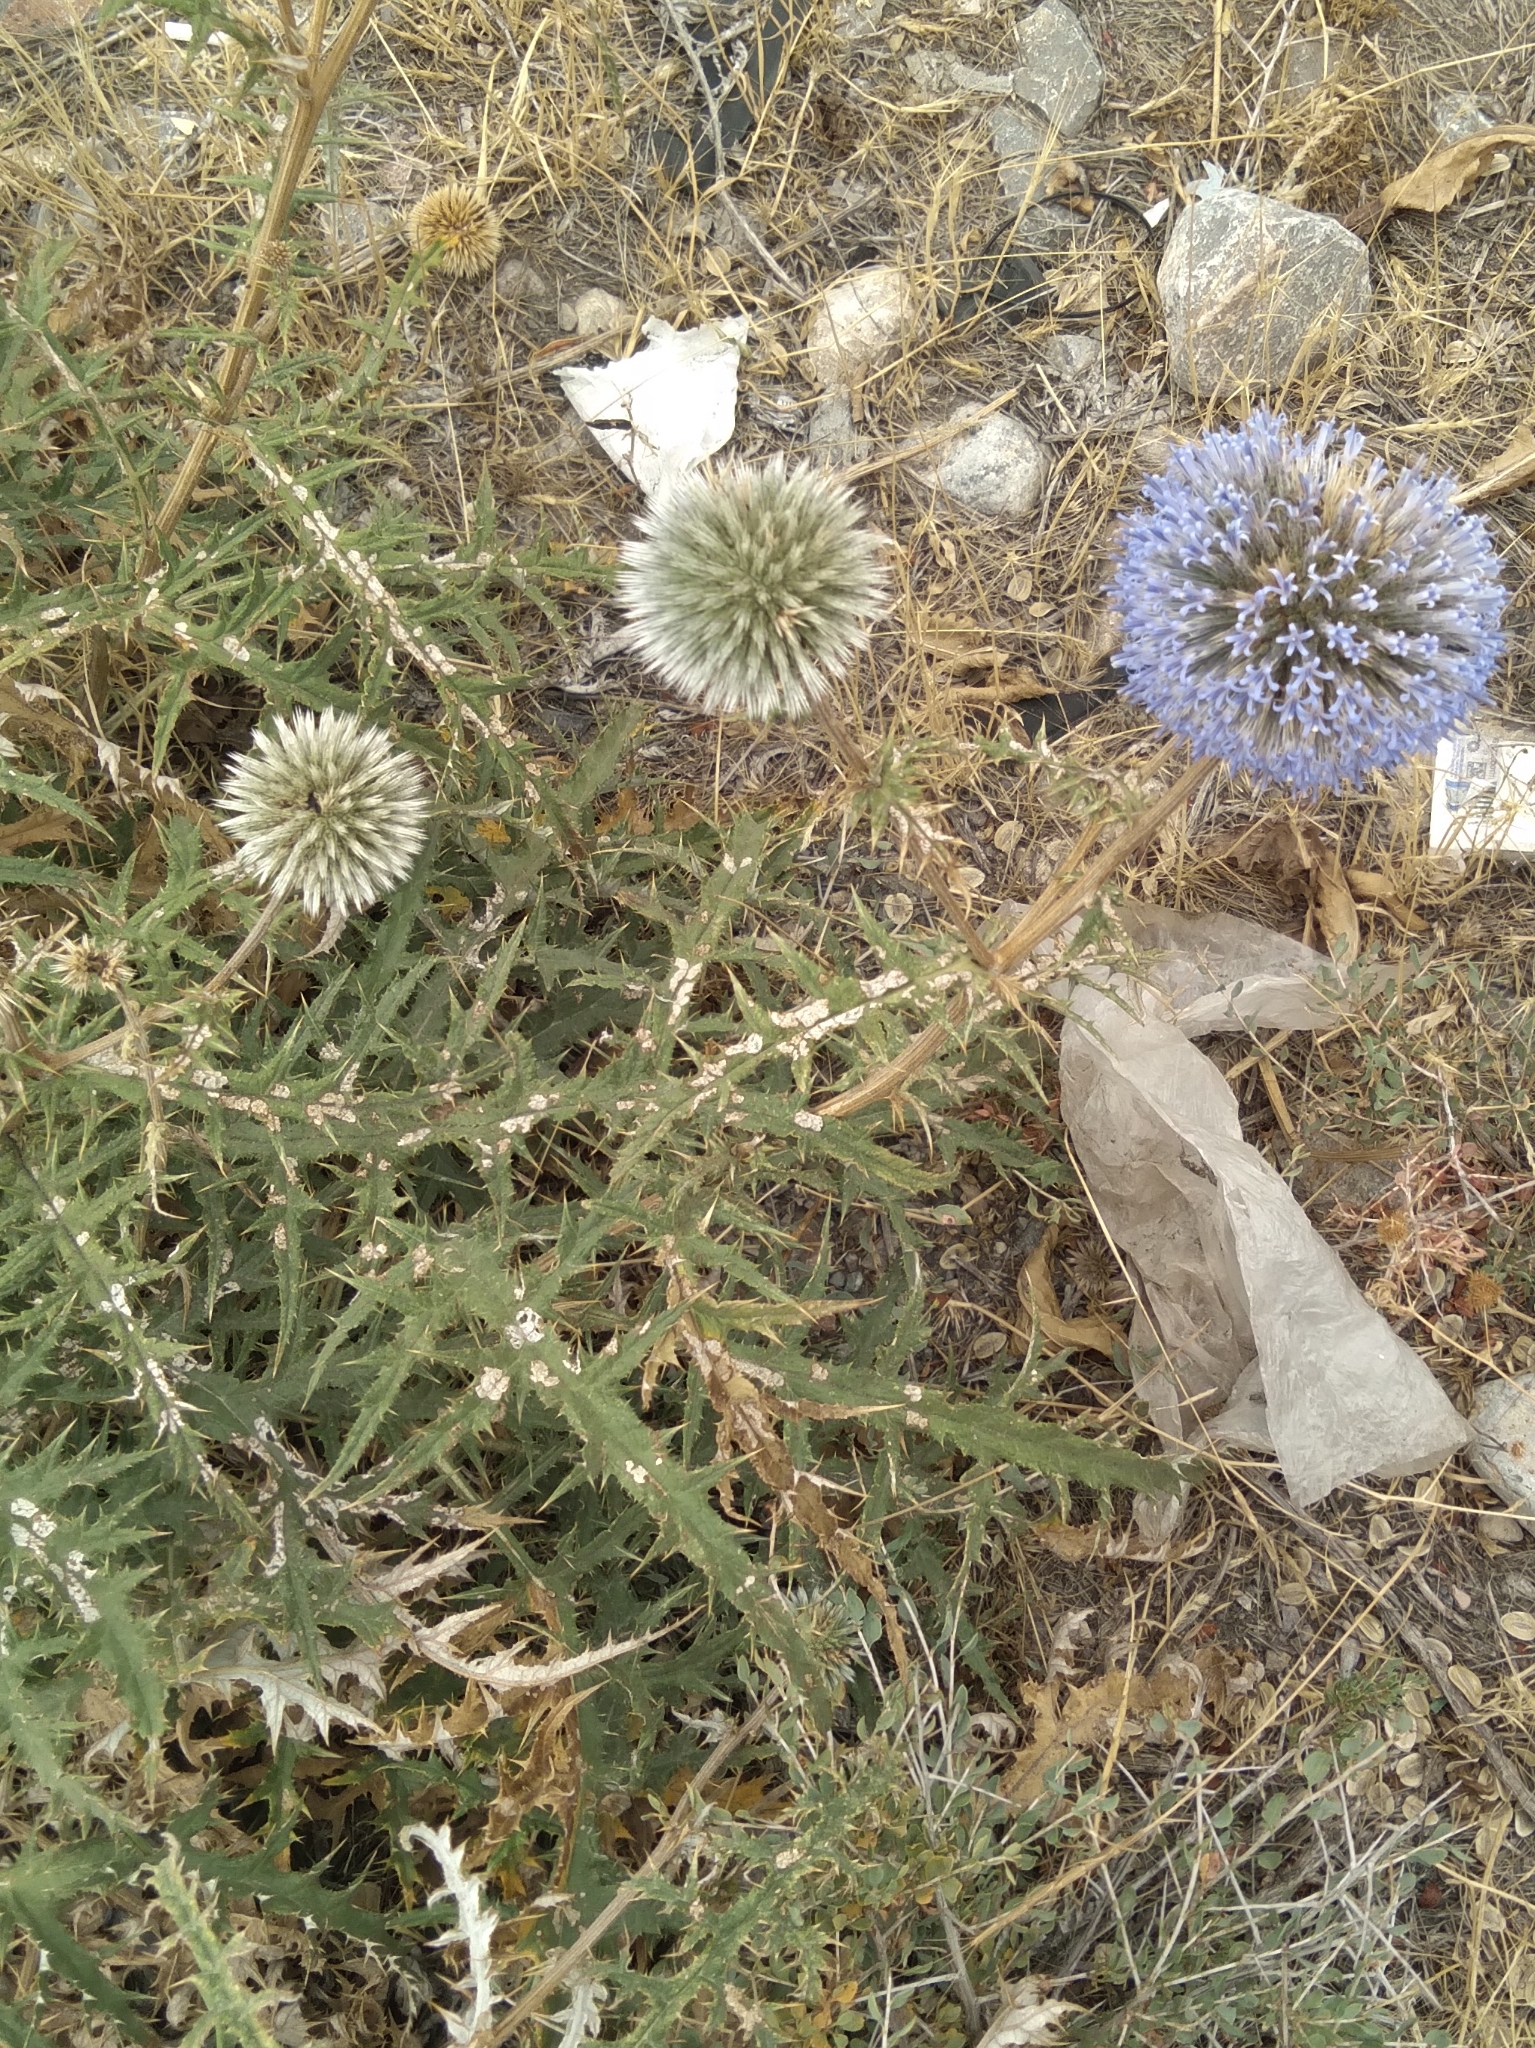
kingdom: Plantae
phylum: Tracheophyta
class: Magnoliopsida
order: Asterales
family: Asteraceae
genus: Echinops
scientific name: Echinops orientalis
